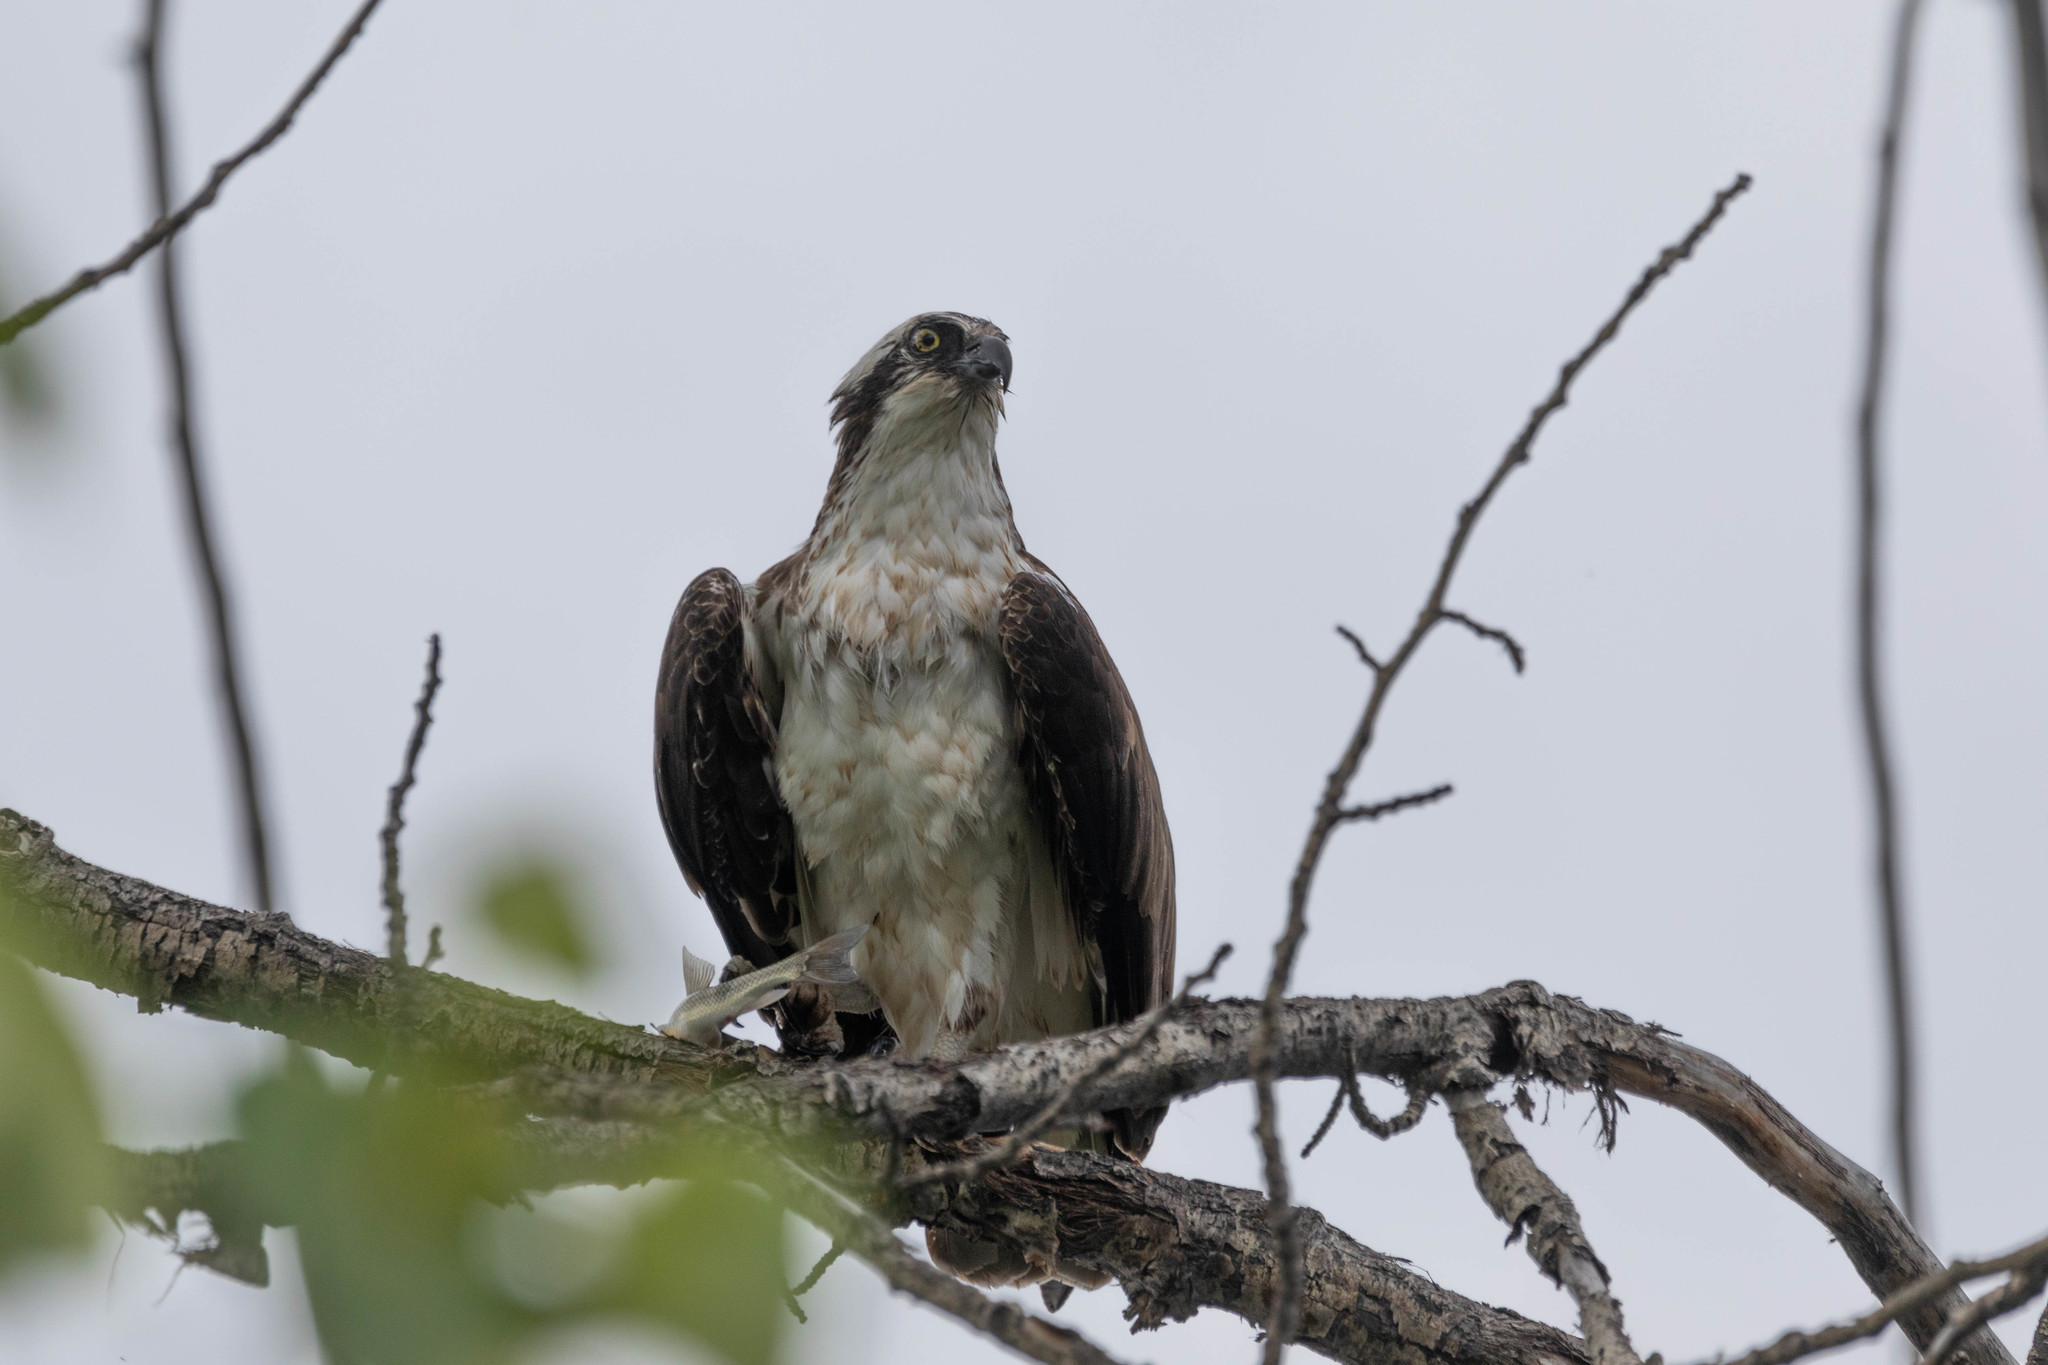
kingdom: Animalia
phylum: Chordata
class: Aves
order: Accipitriformes
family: Pandionidae
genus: Pandion
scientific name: Pandion haliaetus
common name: Osprey
